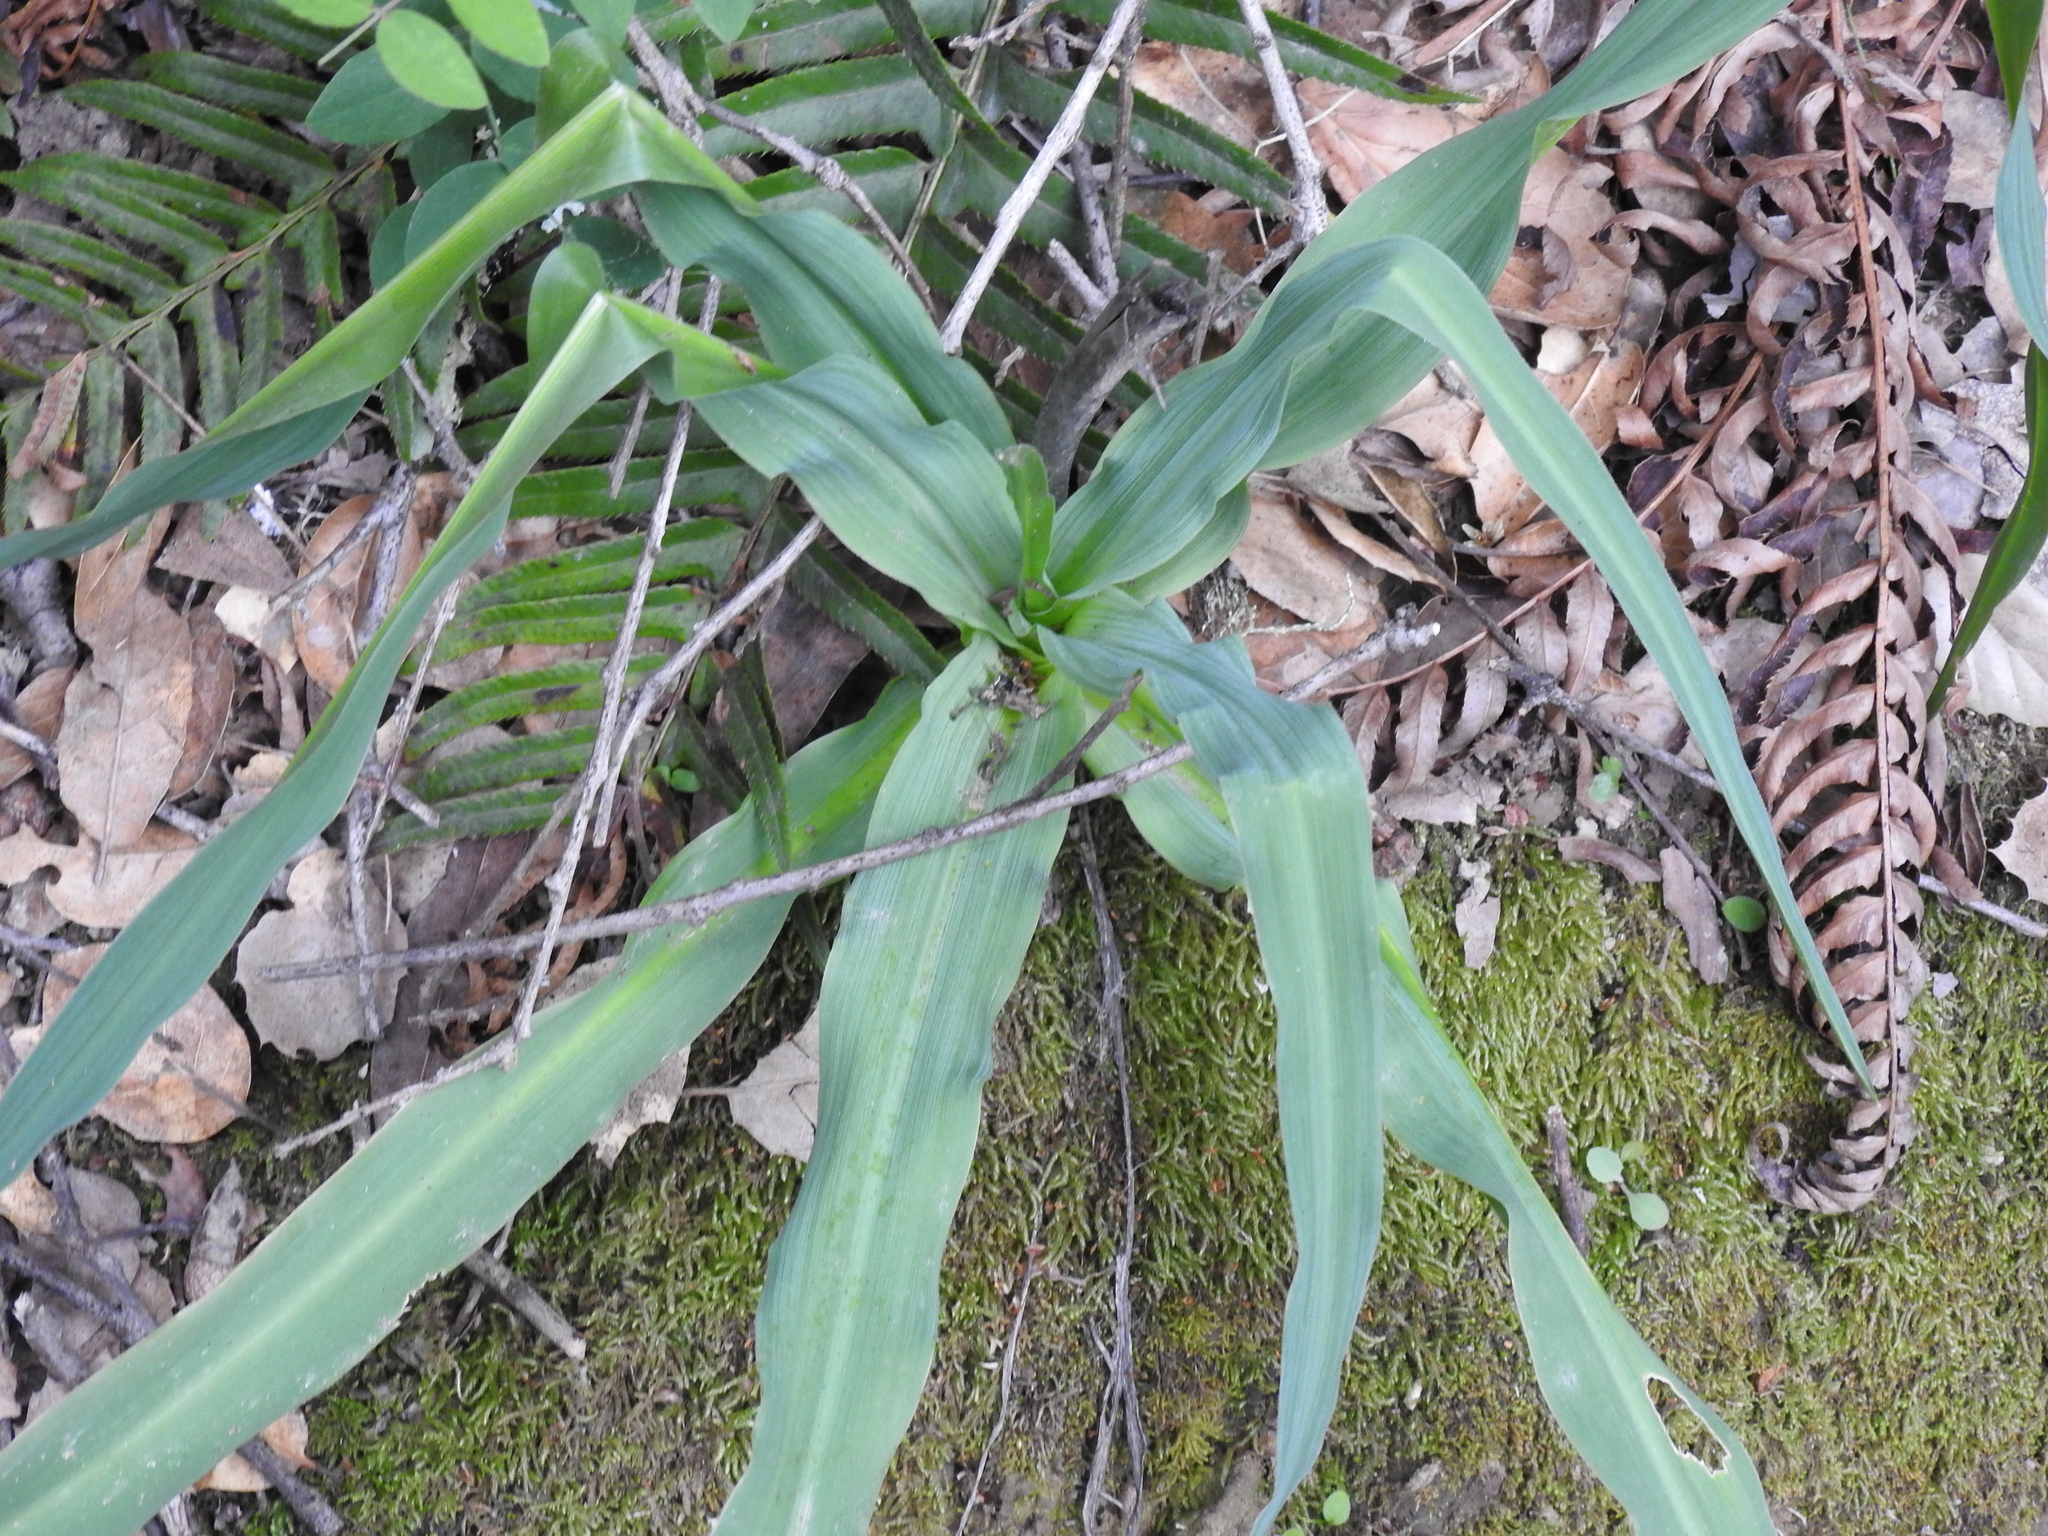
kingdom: Plantae
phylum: Tracheophyta
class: Liliopsida
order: Asparagales
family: Asparagaceae
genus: Chlorogalum
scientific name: Chlorogalum pomeridianum
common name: Amole
